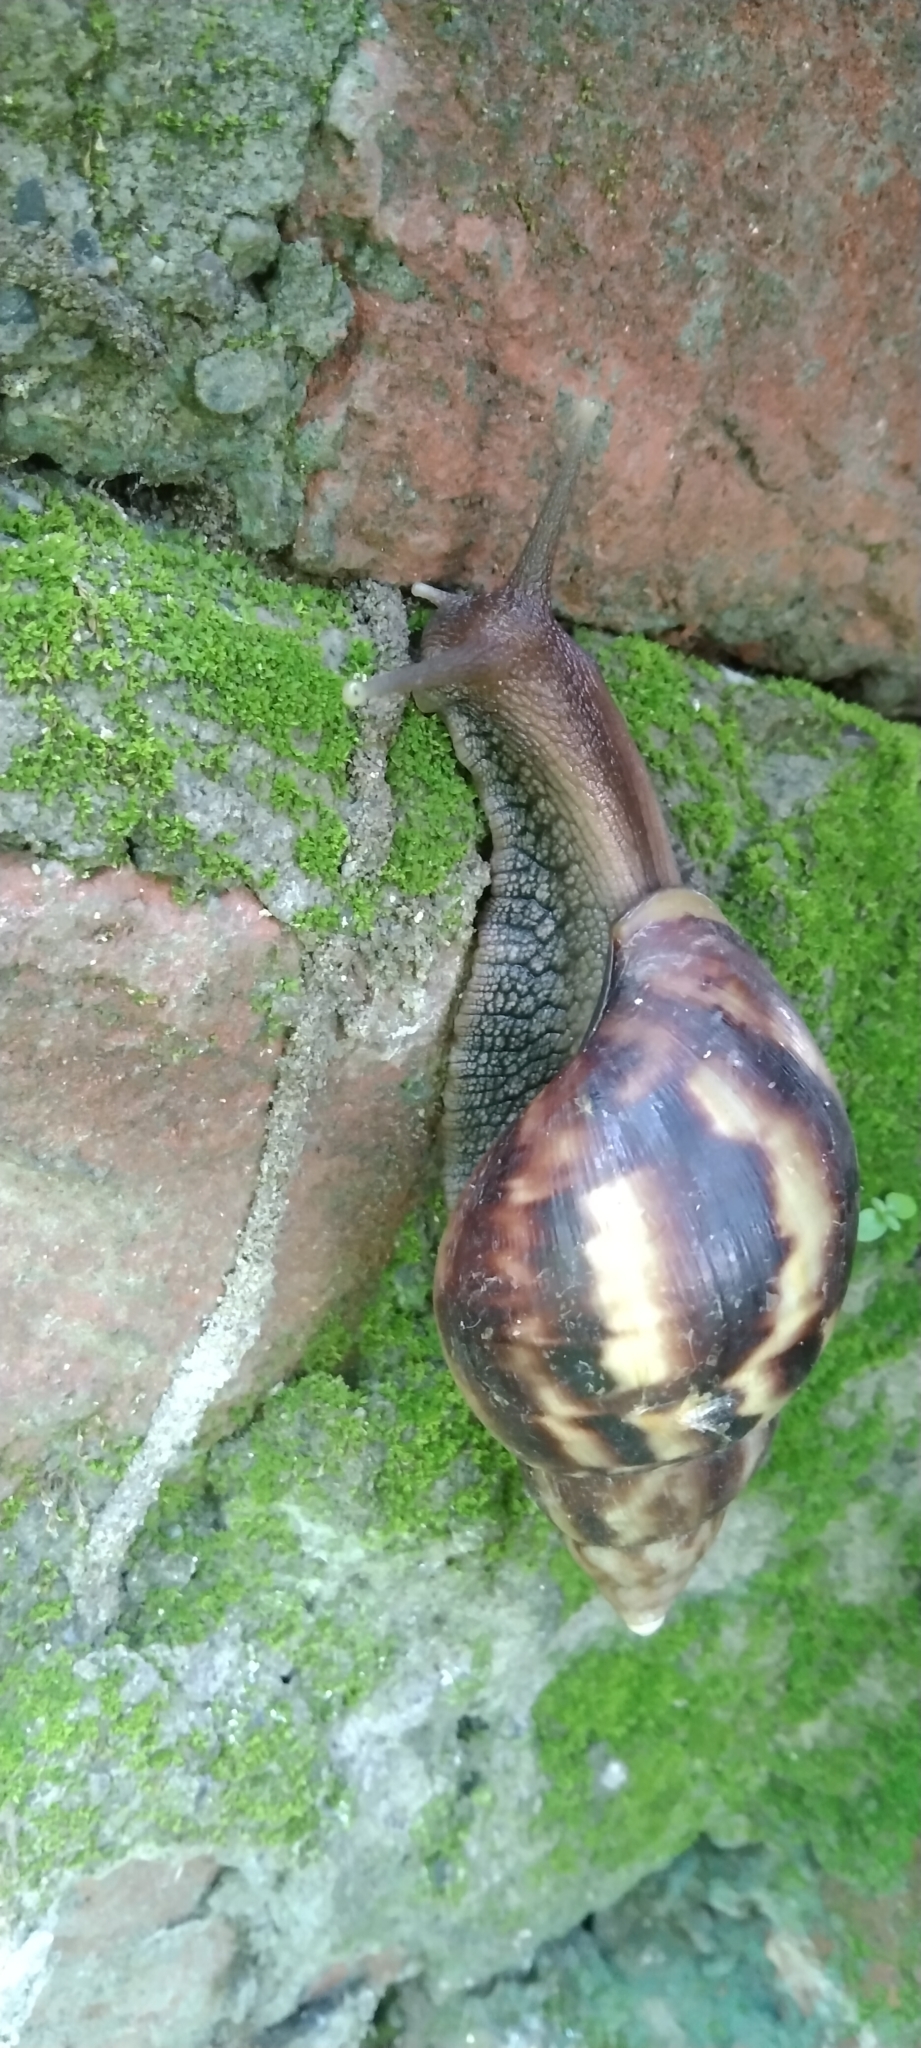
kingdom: Animalia
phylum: Mollusca
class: Gastropoda
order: Stylommatophora
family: Achatinidae
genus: Lissachatina
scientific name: Lissachatina fulica
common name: Giant african snail
